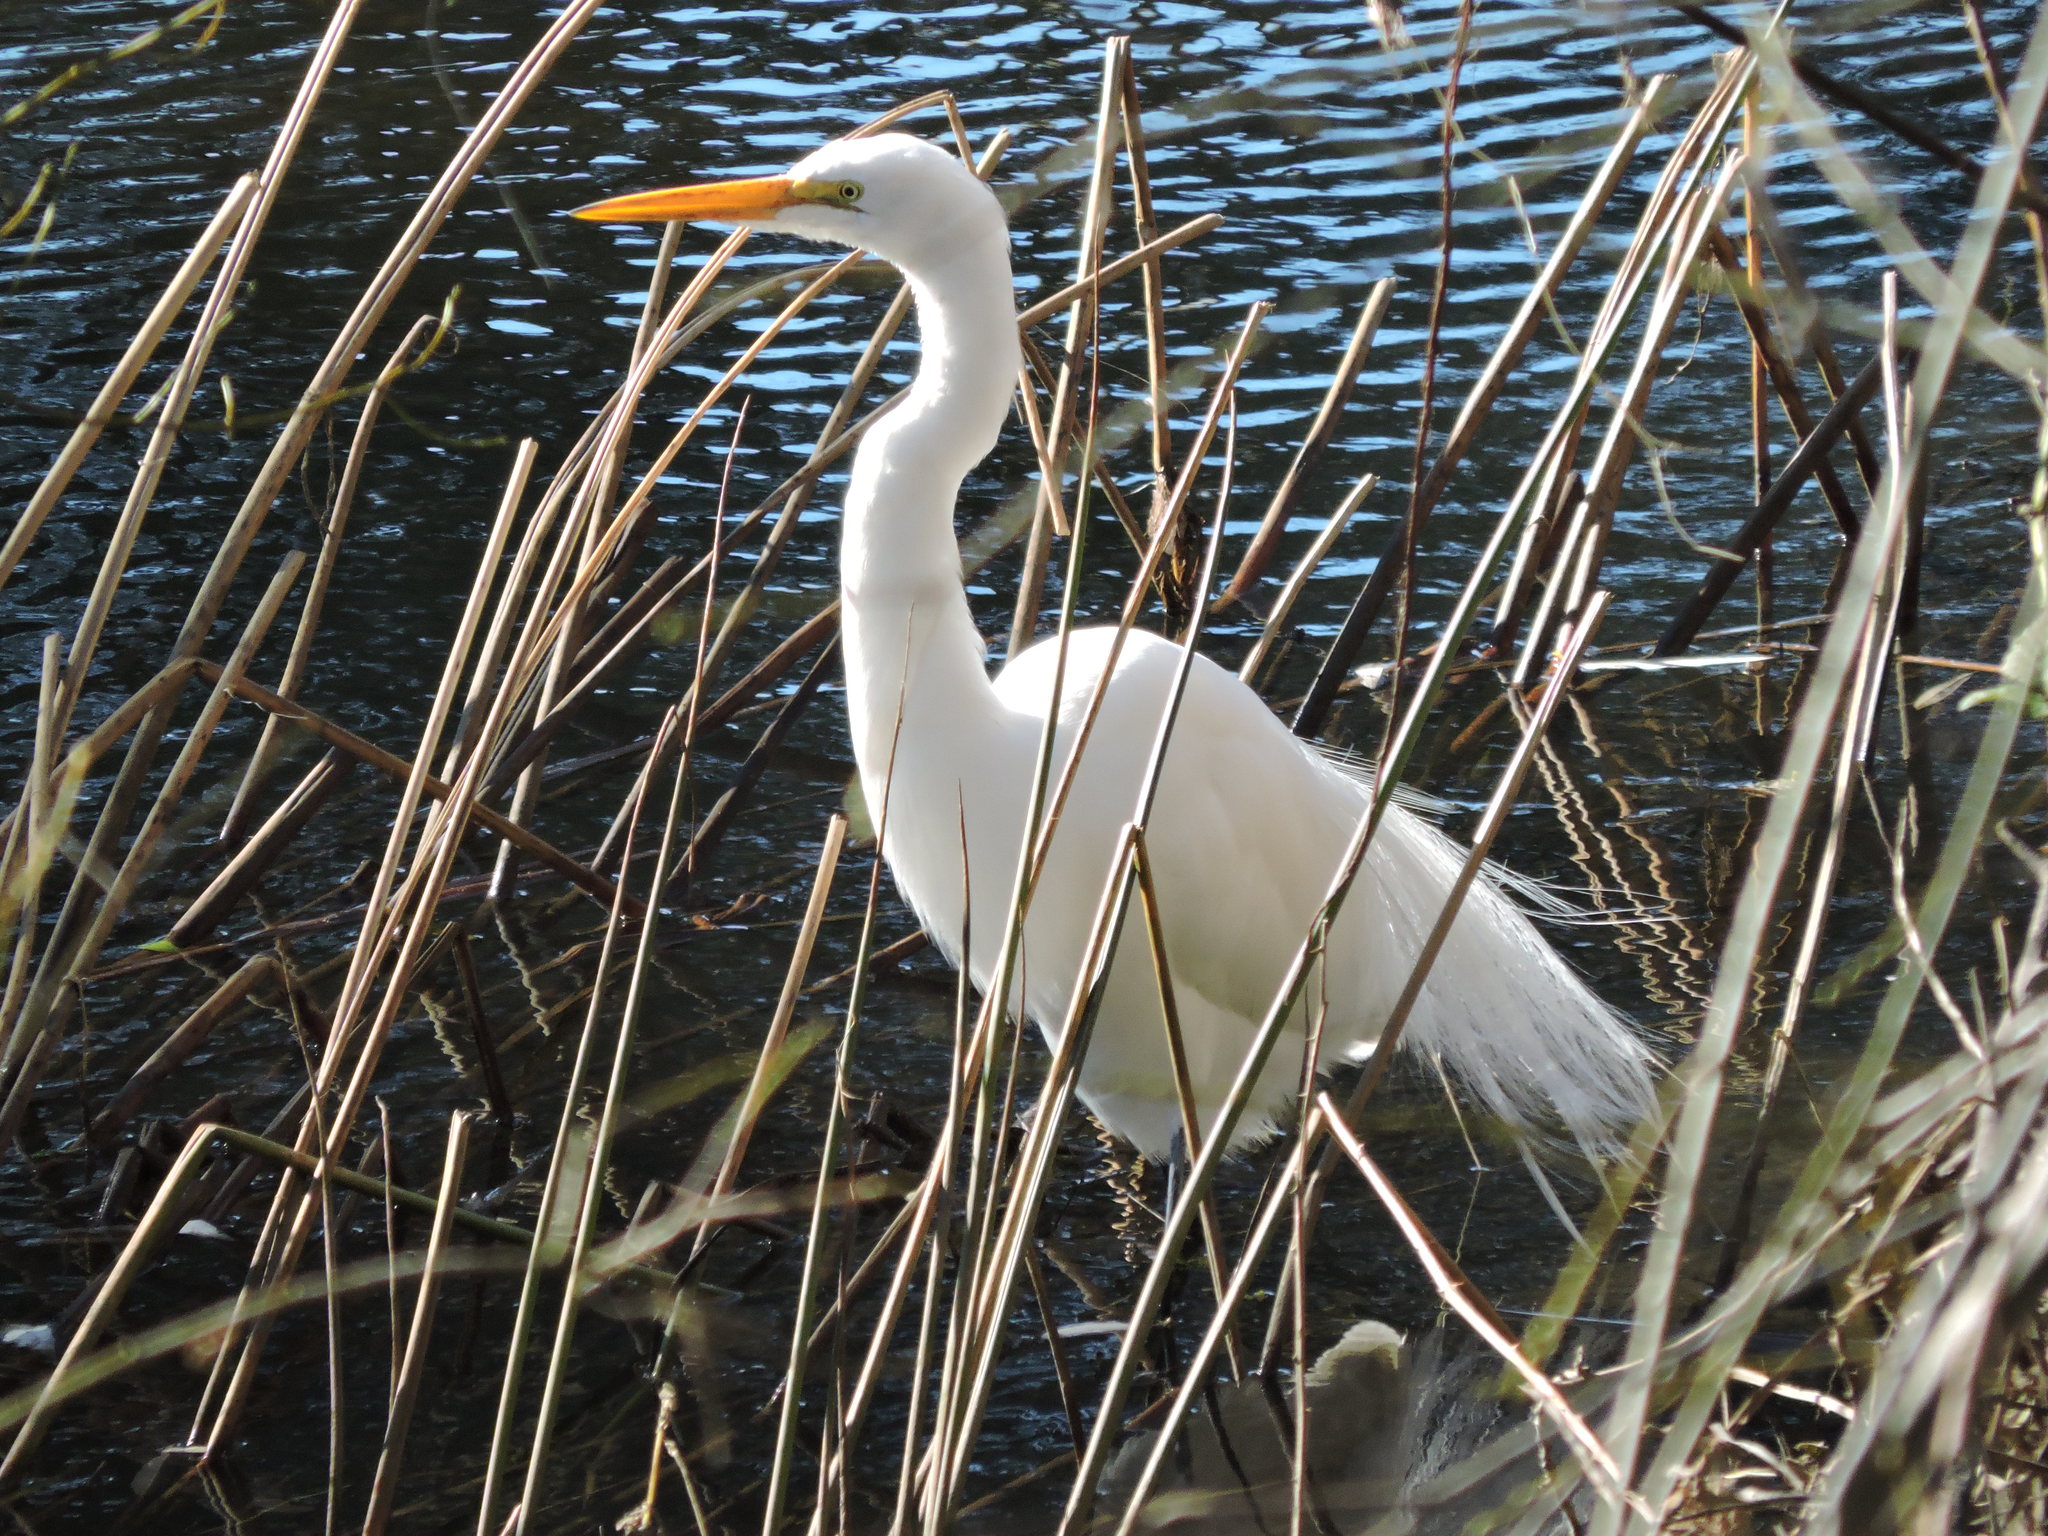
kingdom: Animalia
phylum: Chordata
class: Aves
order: Pelecaniformes
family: Ardeidae
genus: Ardea
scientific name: Ardea alba
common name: Great egret
